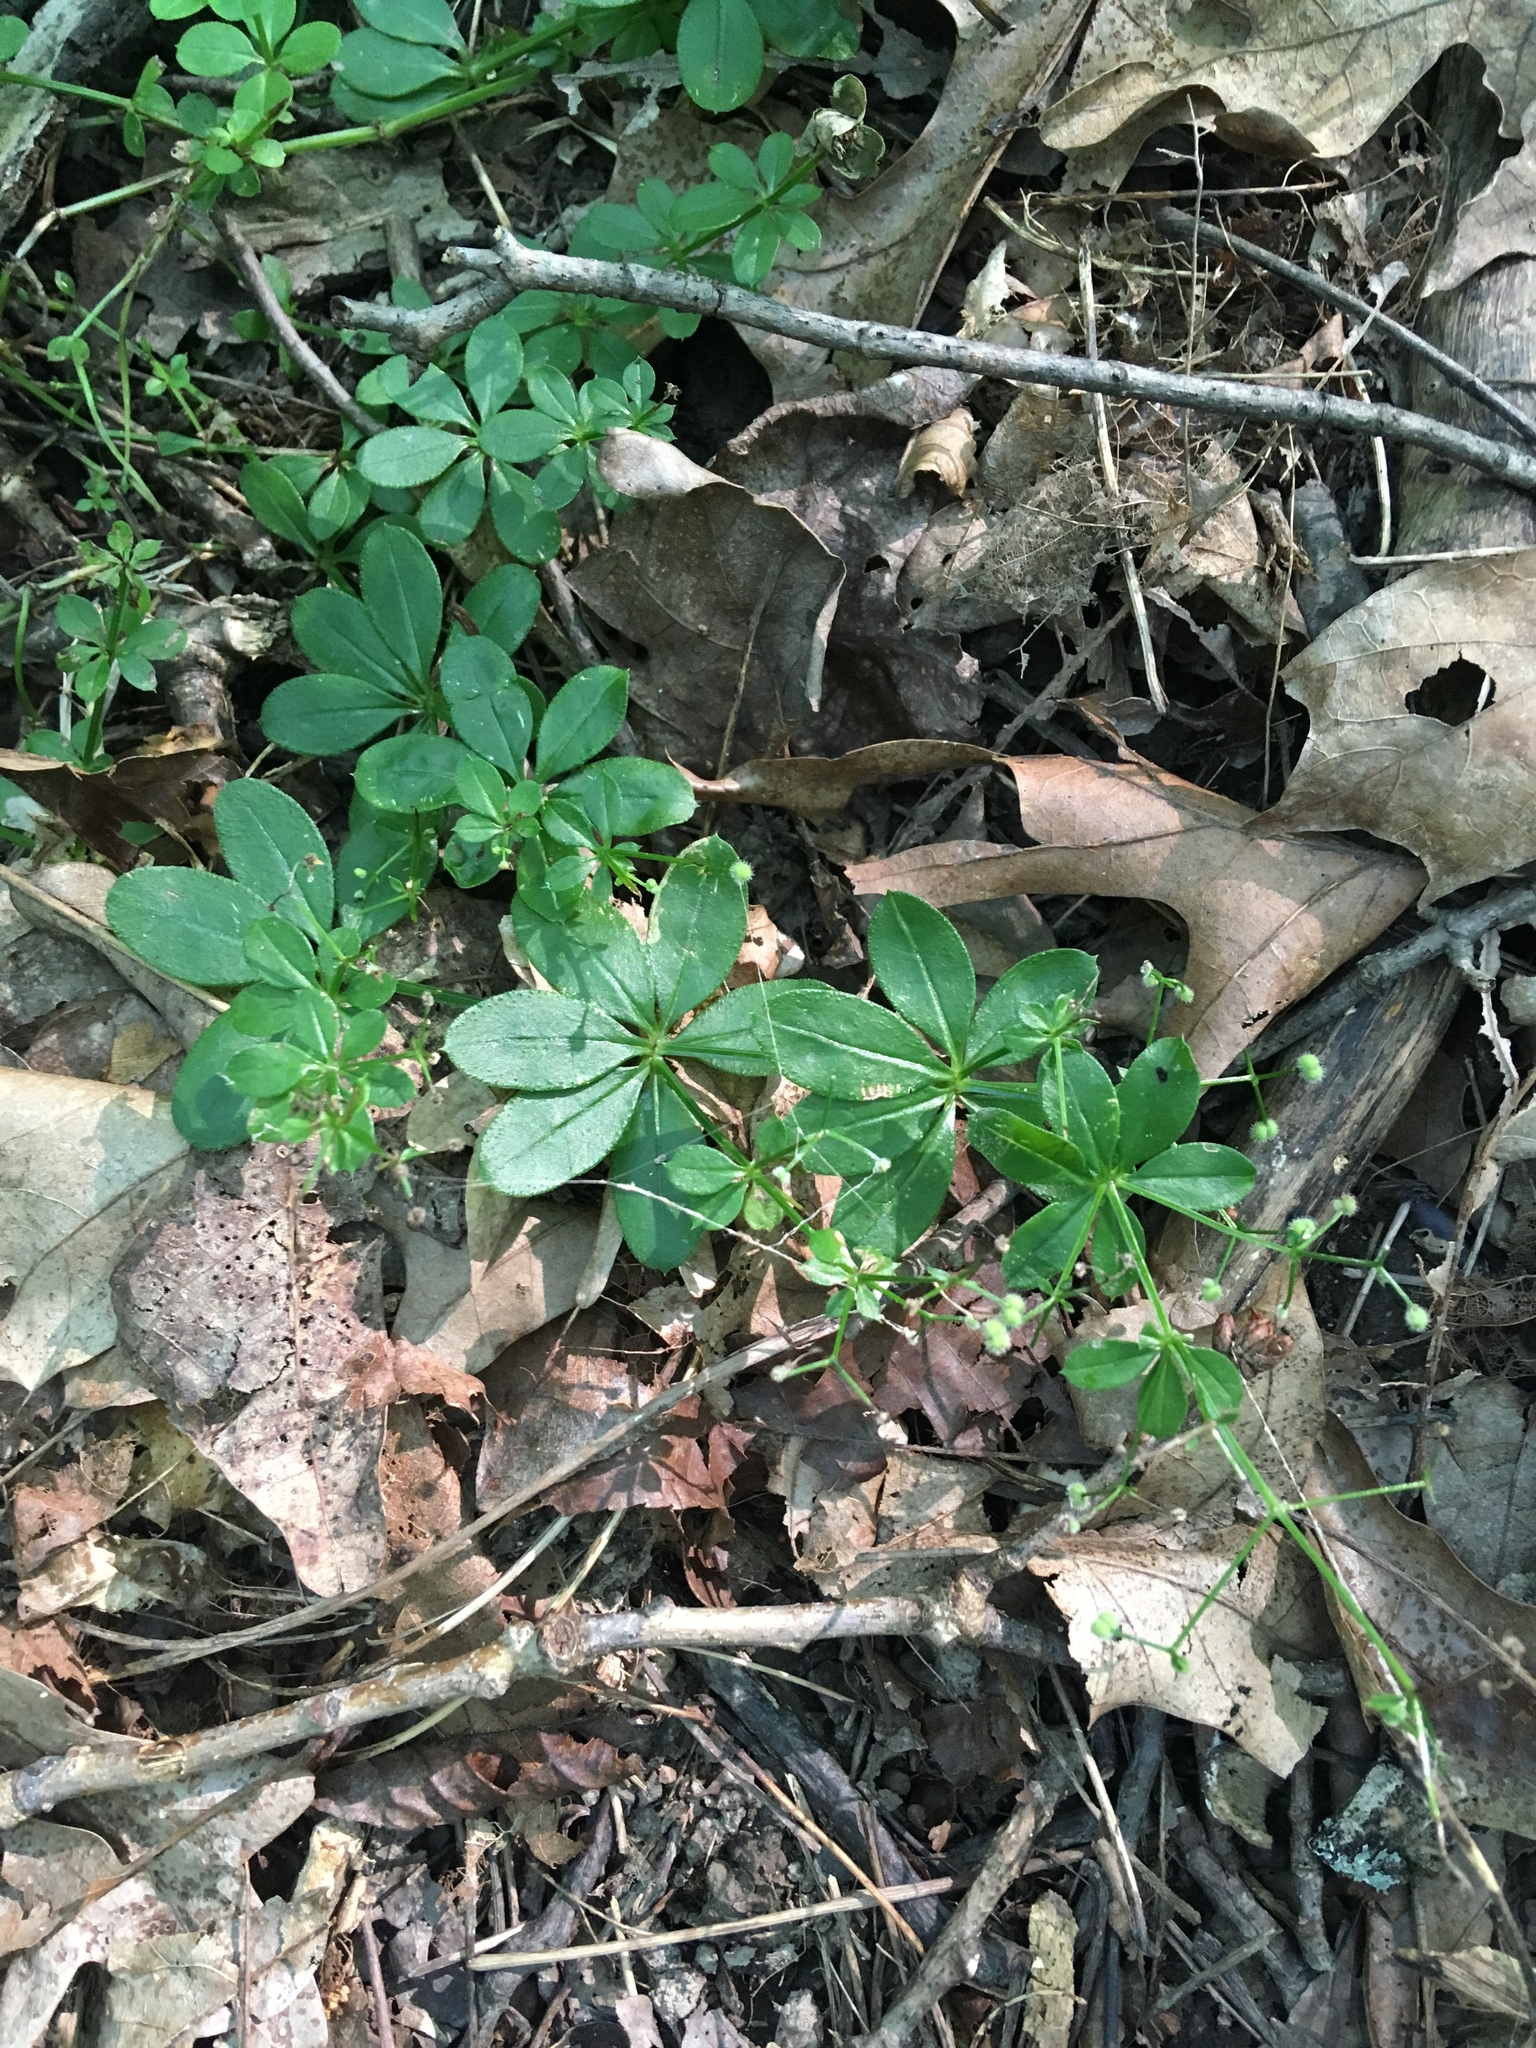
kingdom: Plantae
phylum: Tracheophyta
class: Magnoliopsida
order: Gentianales
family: Rubiaceae
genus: Galium
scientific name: Galium triflorum
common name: Fragrant bedstraw
